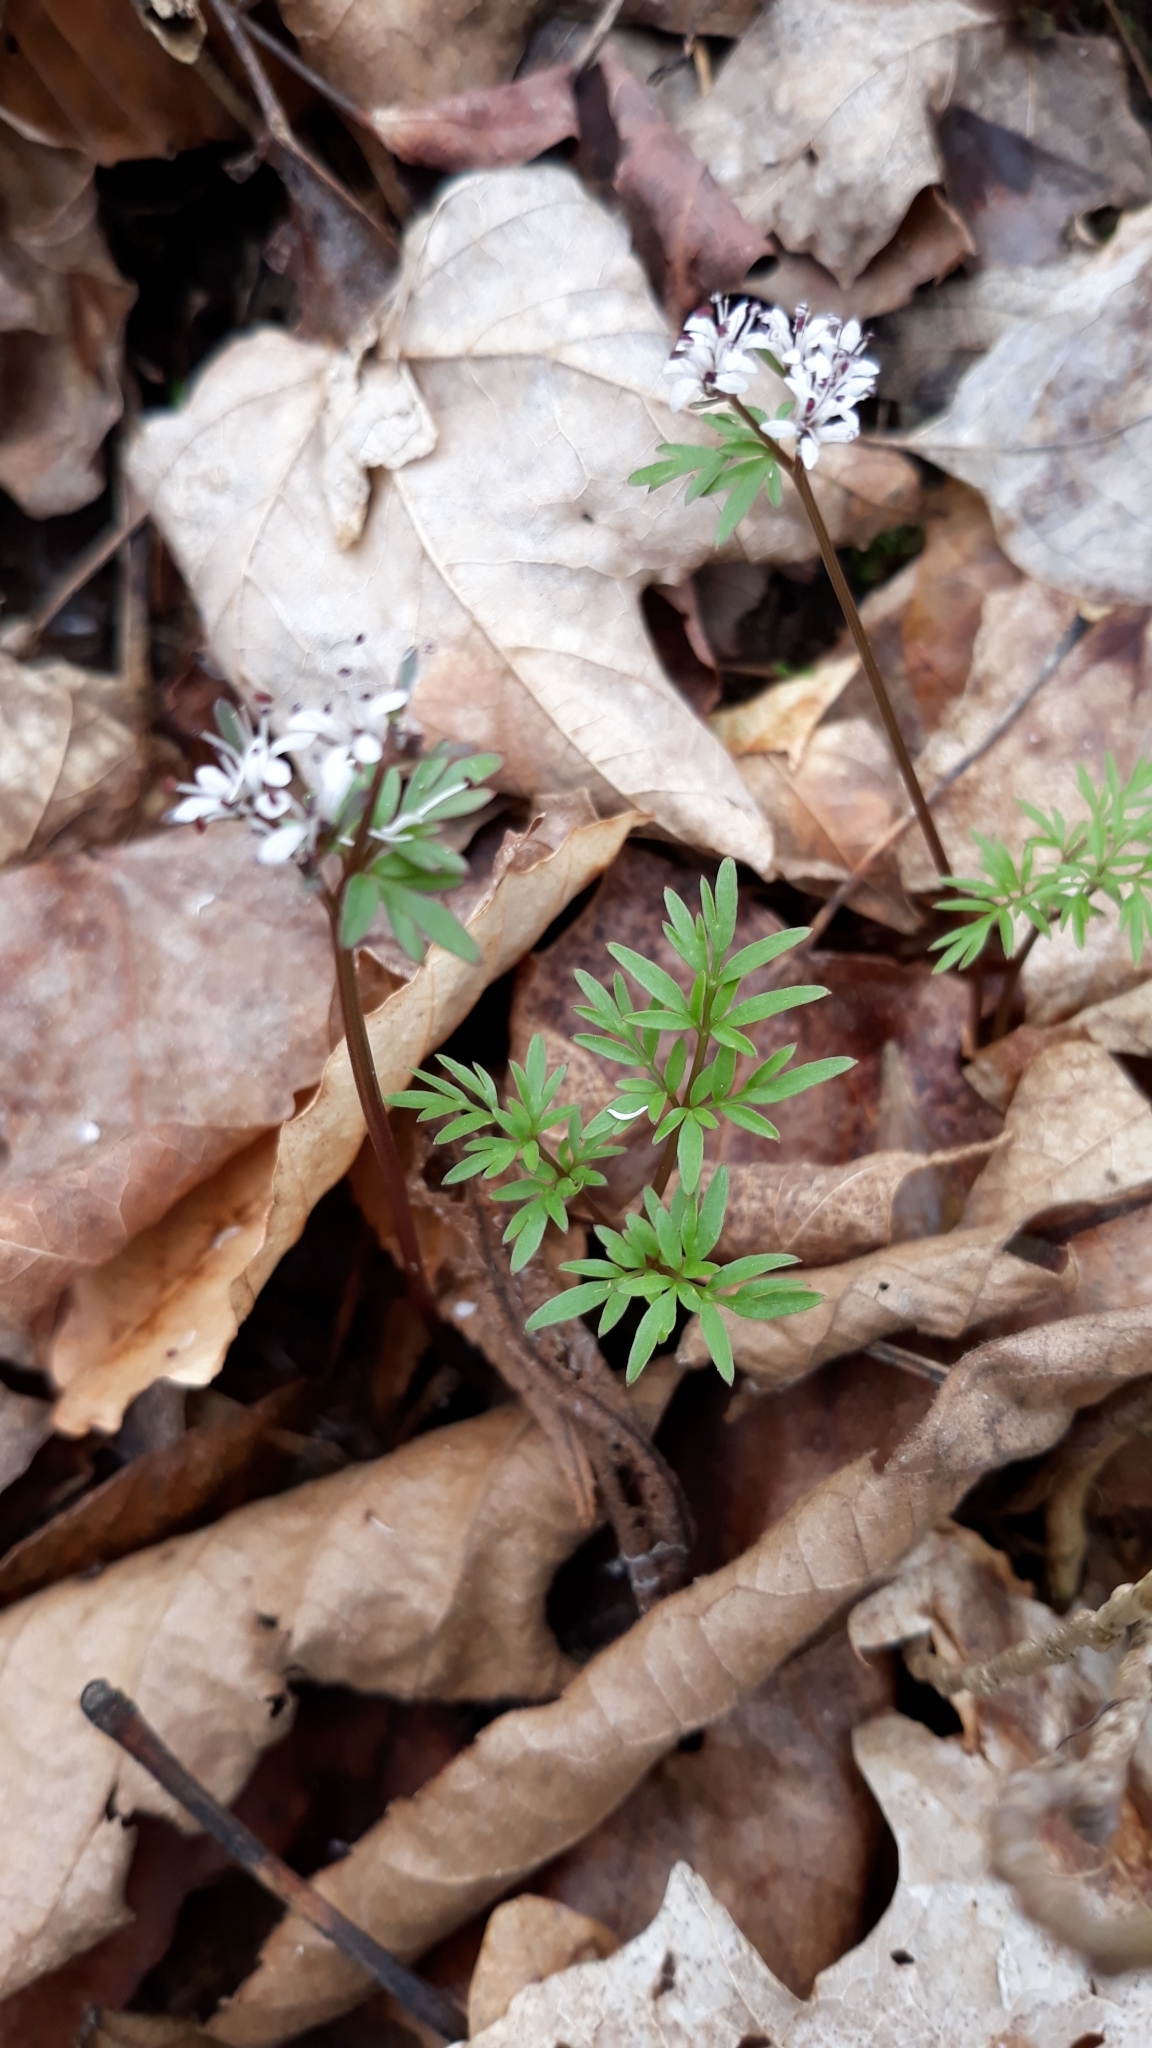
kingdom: Plantae
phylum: Tracheophyta
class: Magnoliopsida
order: Apiales
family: Apiaceae
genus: Erigenia
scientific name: Erigenia bulbosa
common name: Pepper-and-salt
